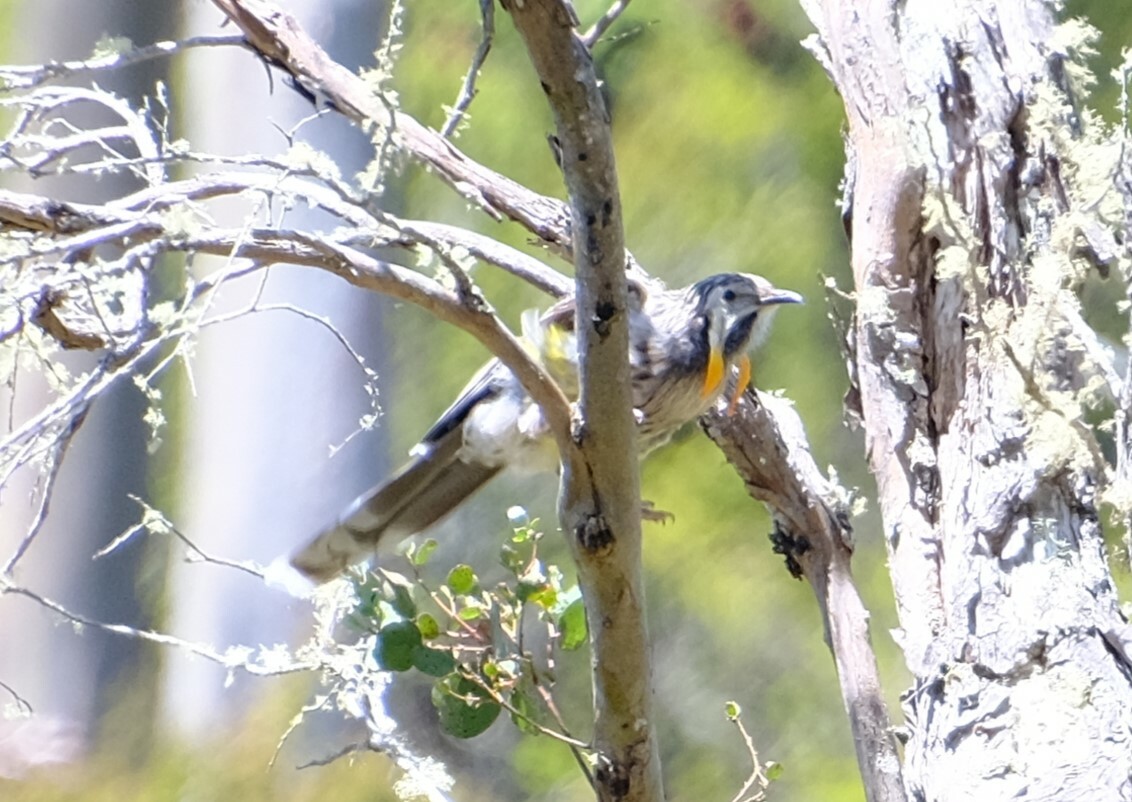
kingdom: Animalia
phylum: Chordata
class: Aves
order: Passeriformes
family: Meliphagidae
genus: Anthochaera
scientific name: Anthochaera paradoxa
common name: Yellow wattlebird
